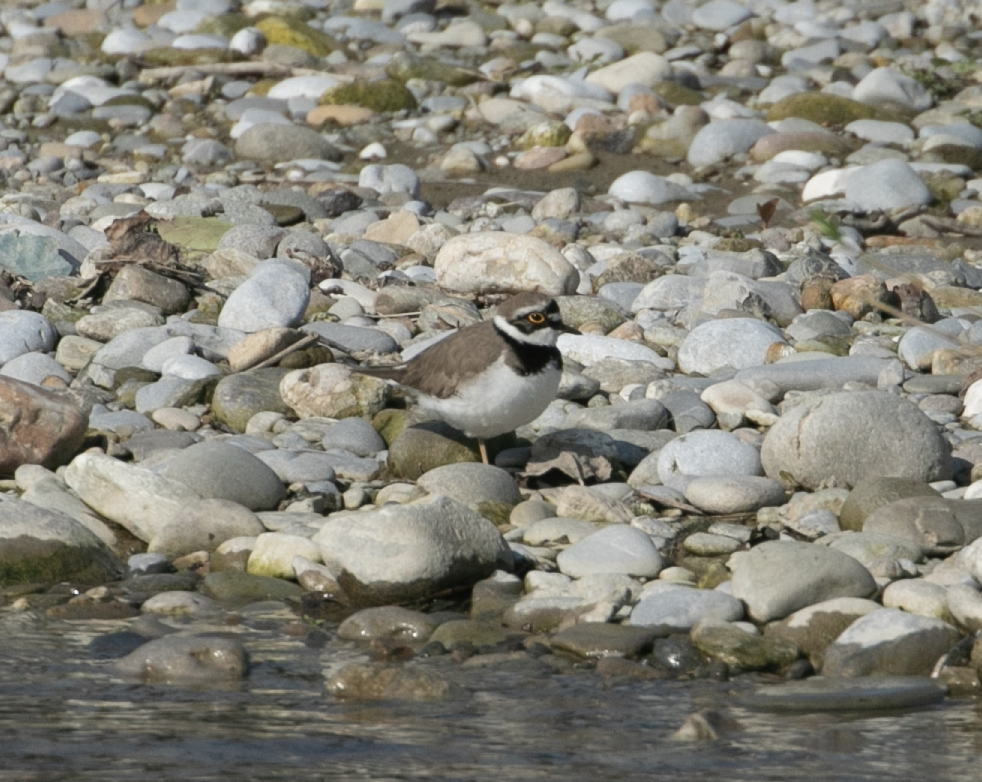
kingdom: Animalia
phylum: Chordata
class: Aves
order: Charadriiformes
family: Charadriidae
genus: Charadrius
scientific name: Charadrius dubius
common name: Little ringed plover
